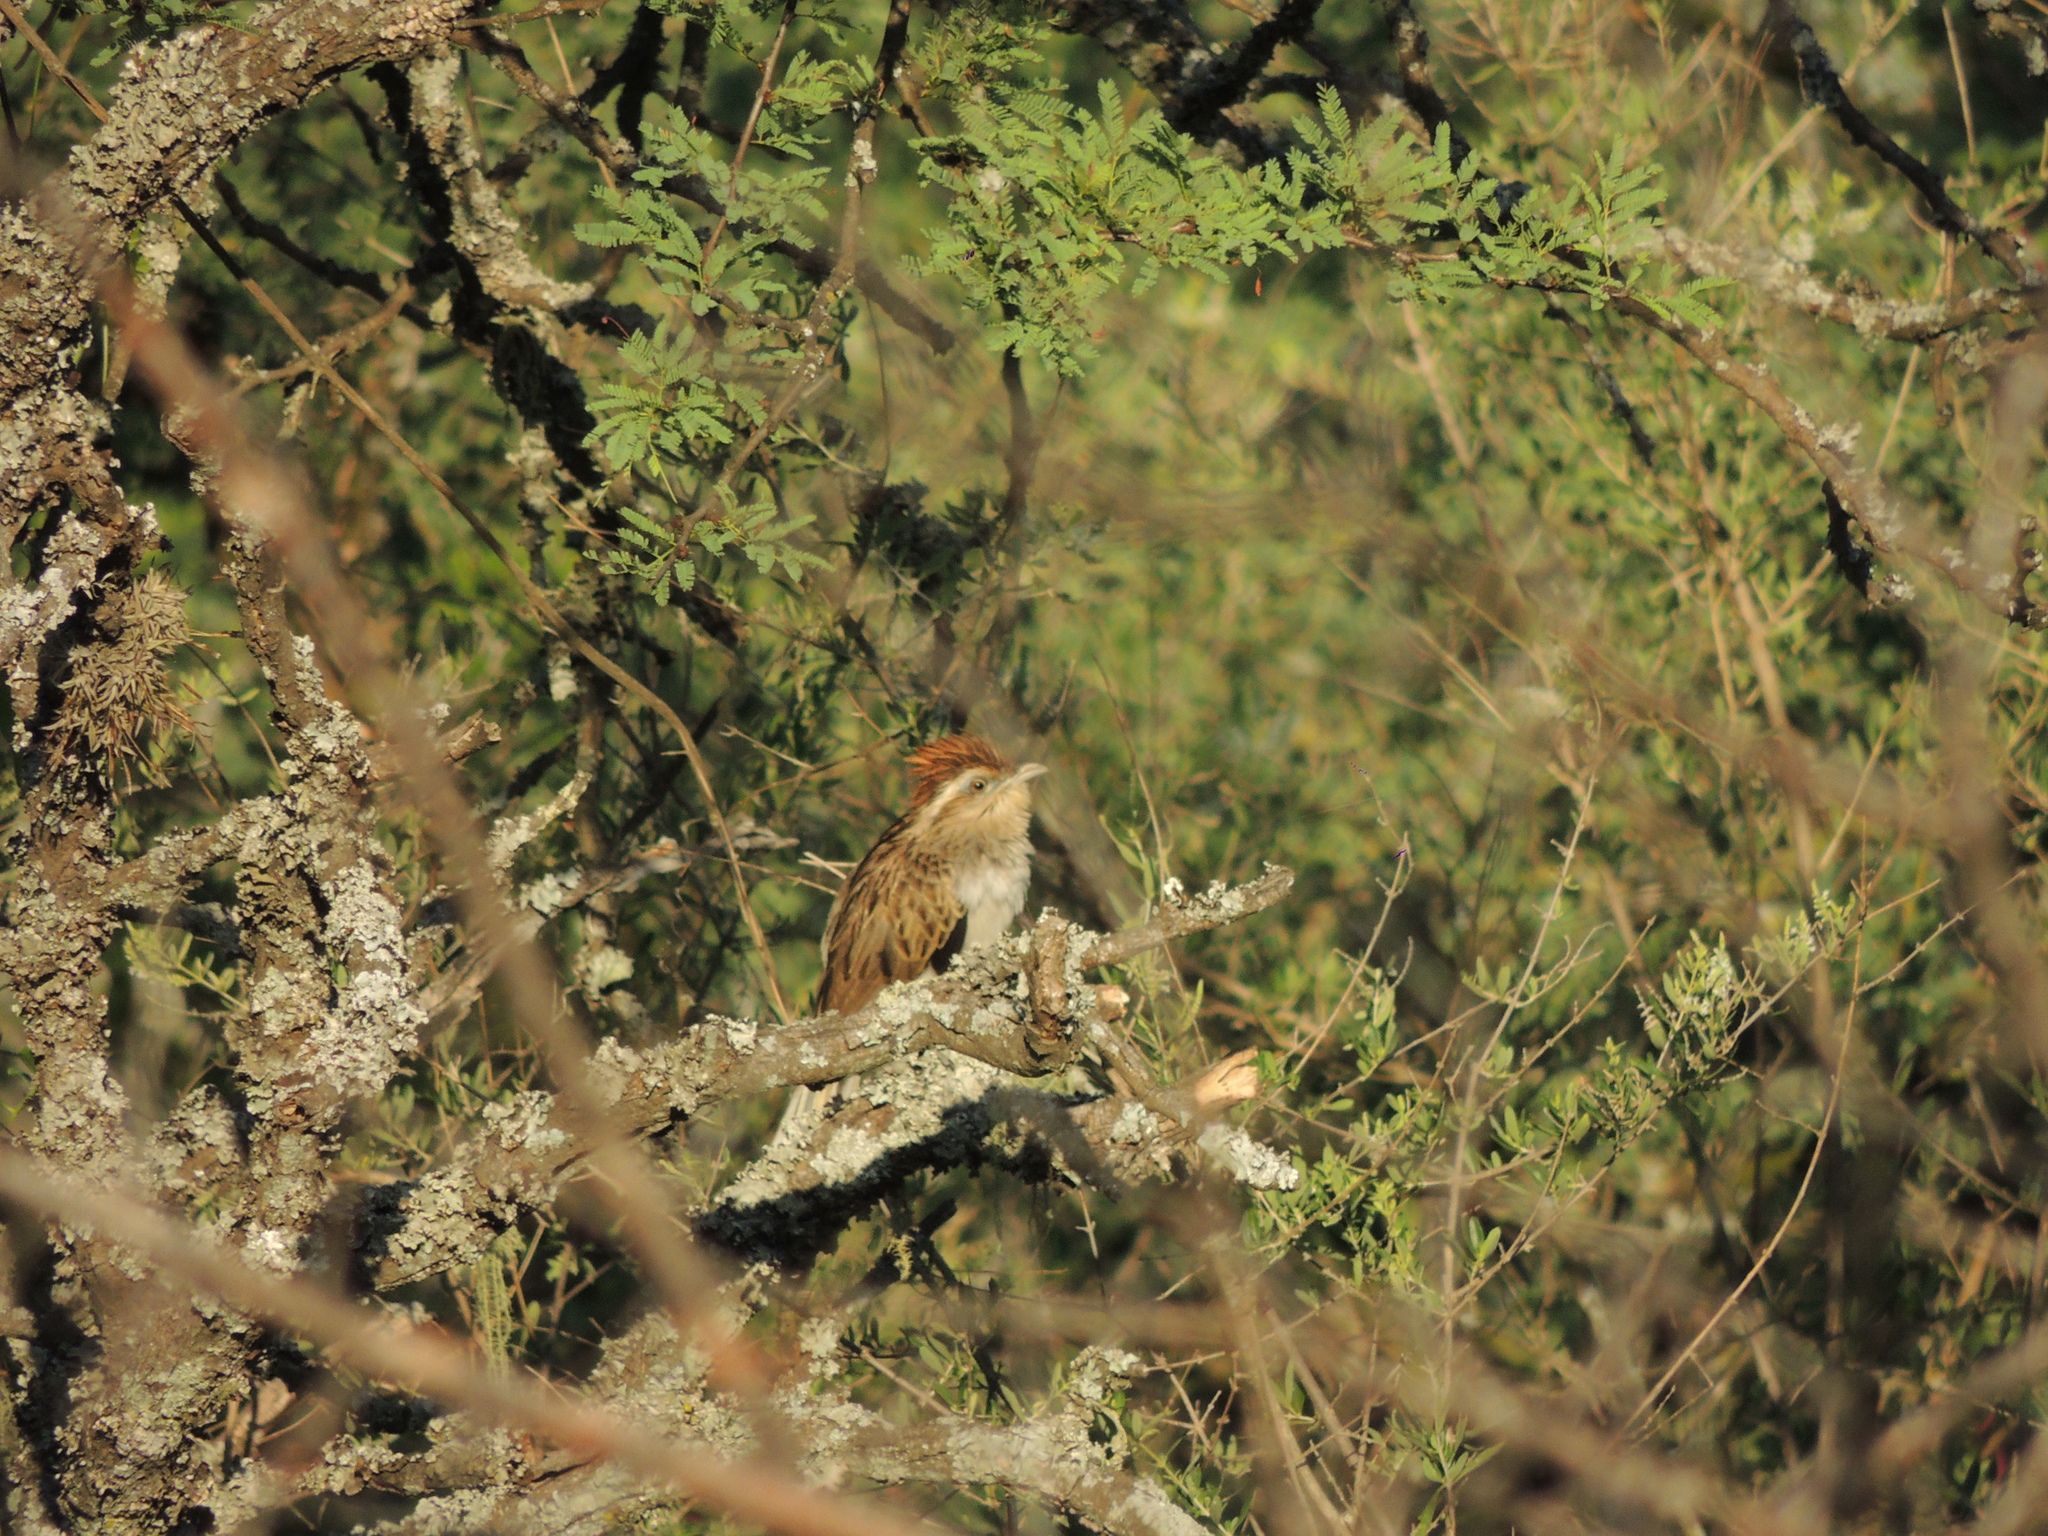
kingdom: Animalia
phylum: Chordata
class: Aves
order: Cuculiformes
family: Cuculidae
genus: Tapera
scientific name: Tapera naevia
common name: Striped cuckoo
